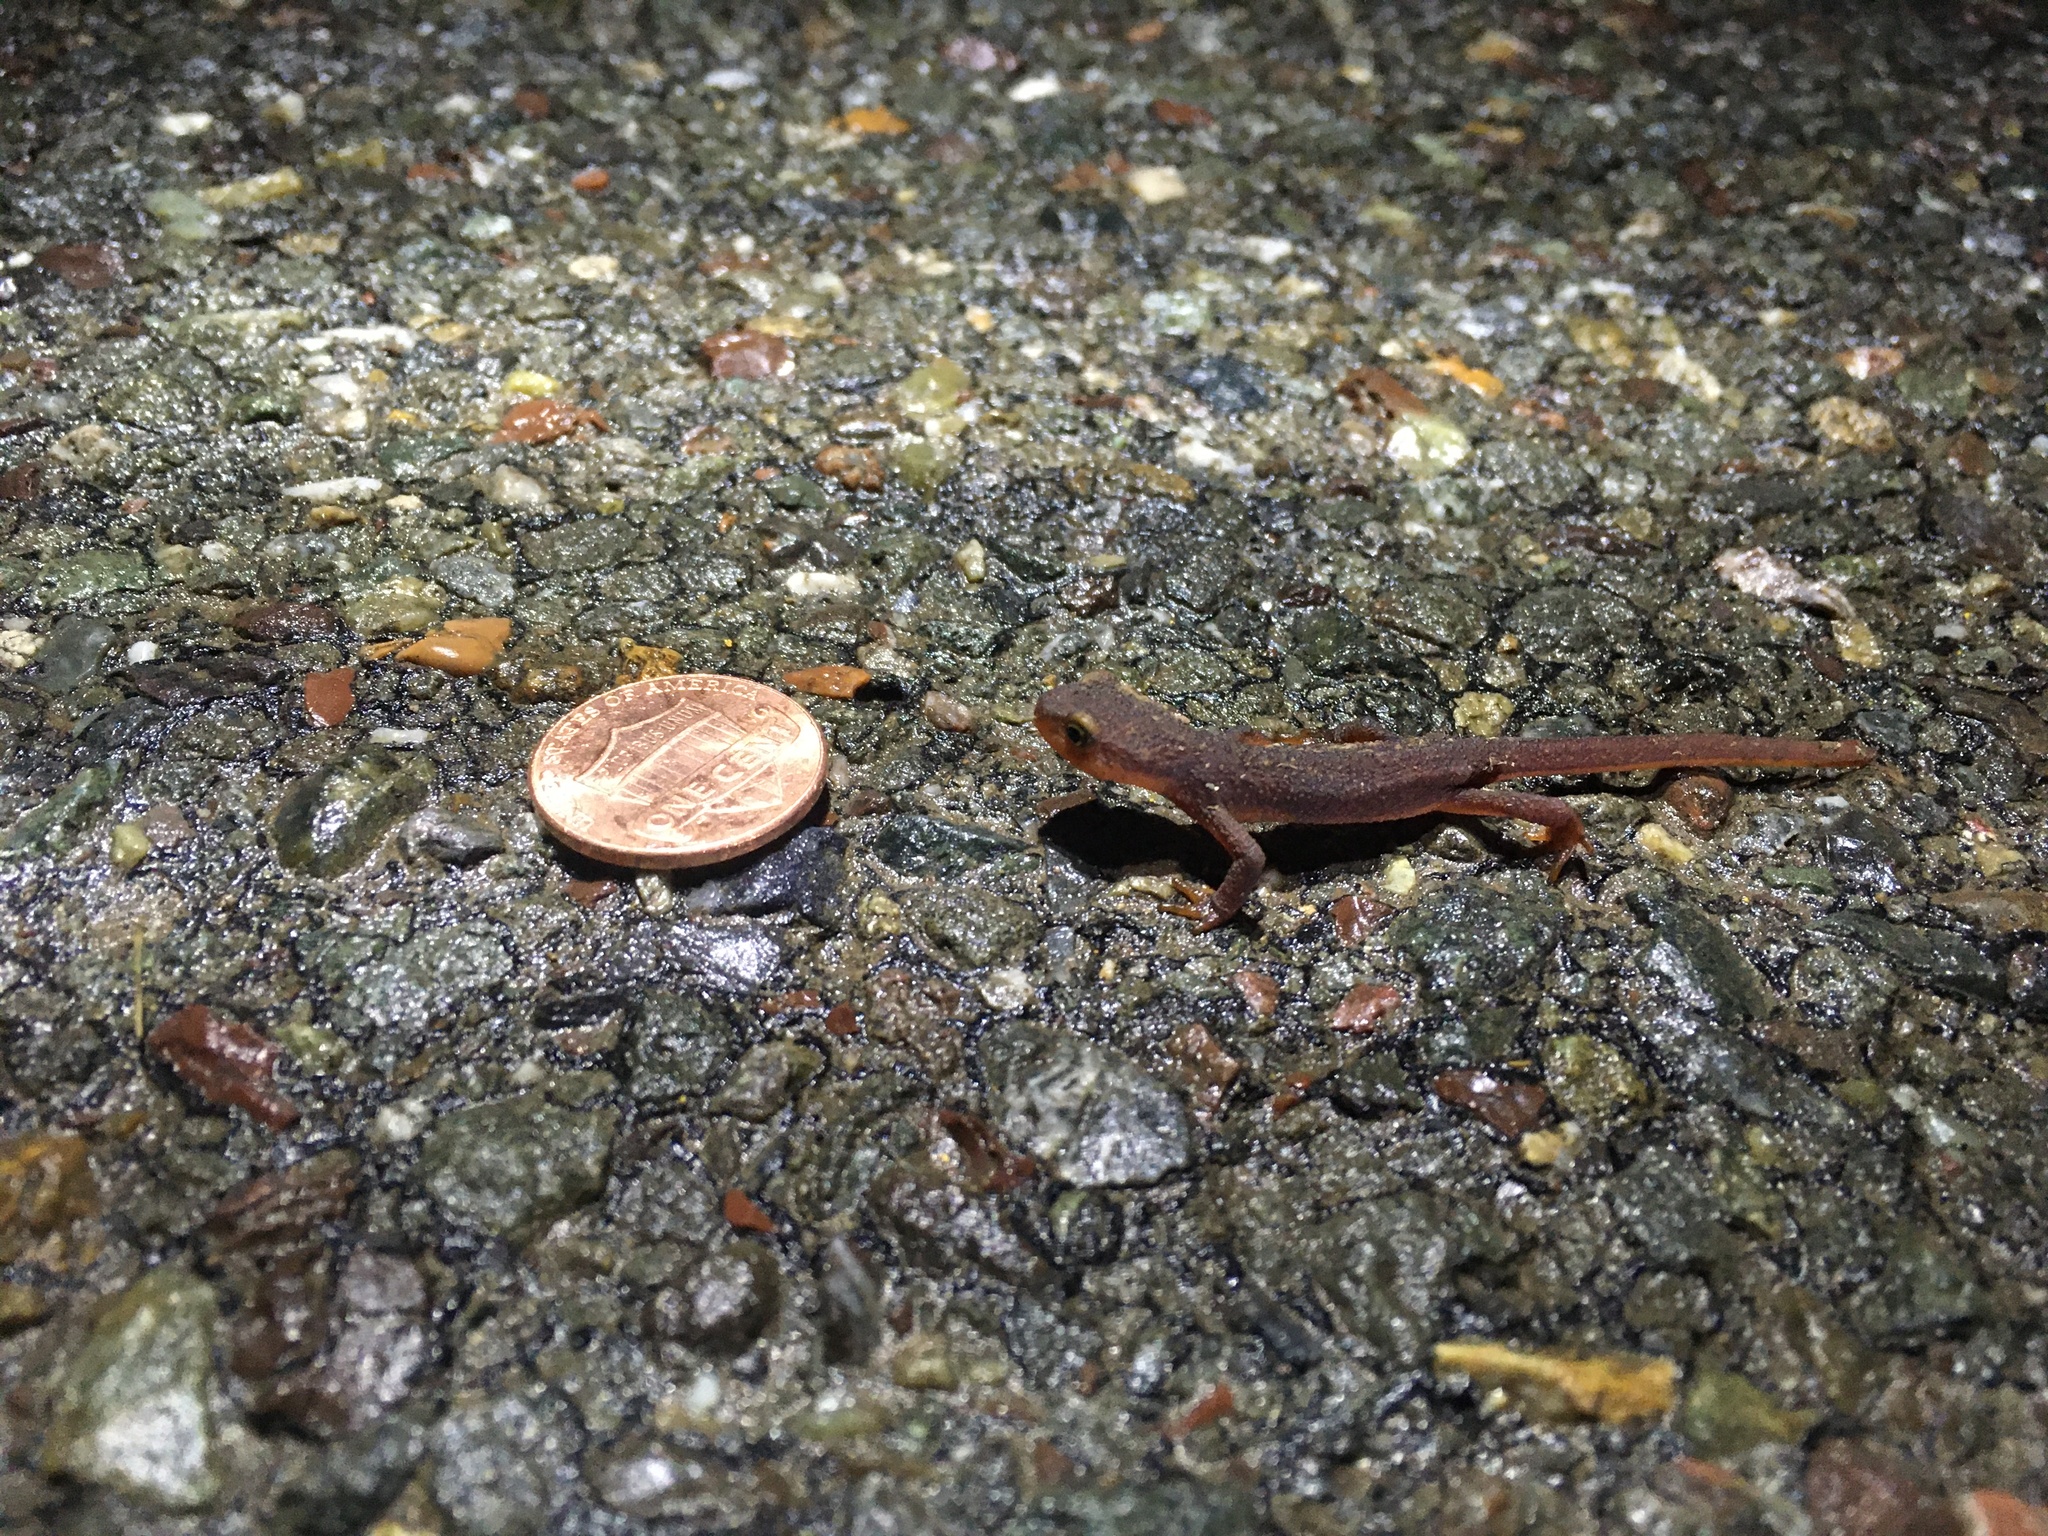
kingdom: Animalia
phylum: Chordata
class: Amphibia
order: Caudata
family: Salamandridae
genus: Taricha
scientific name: Taricha torosa
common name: California newt
